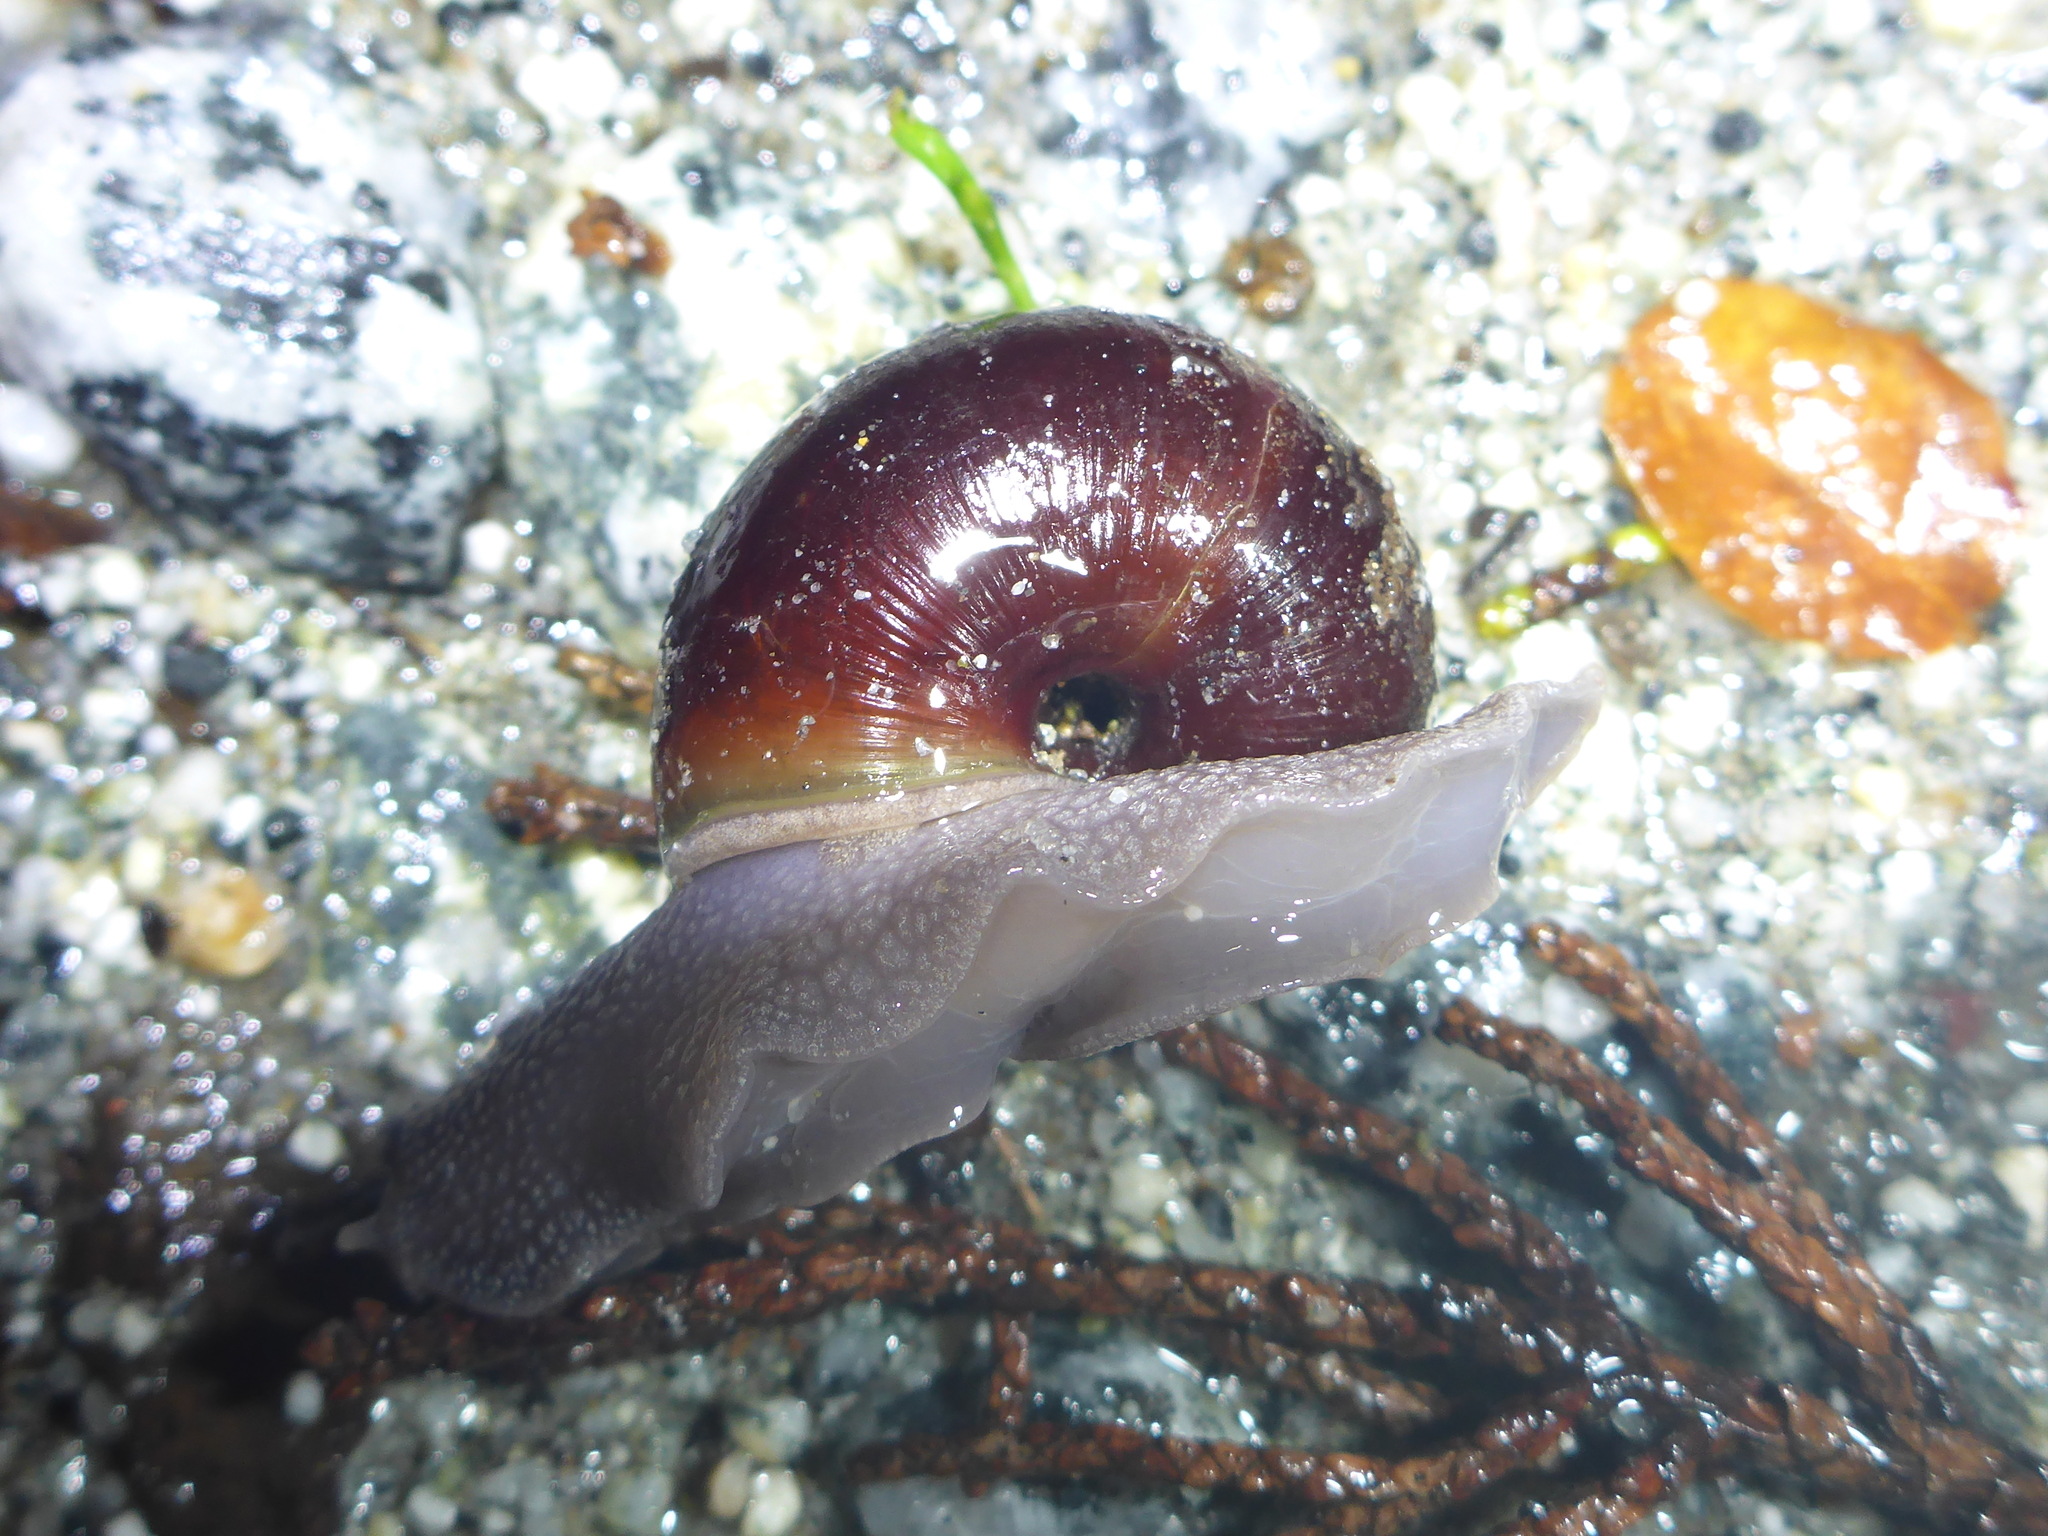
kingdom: Animalia
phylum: Mollusca
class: Gastropoda
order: Stylommatophora
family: Xanthonychidae
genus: Helminthoglypta
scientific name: Helminthoglypta sequoicola
